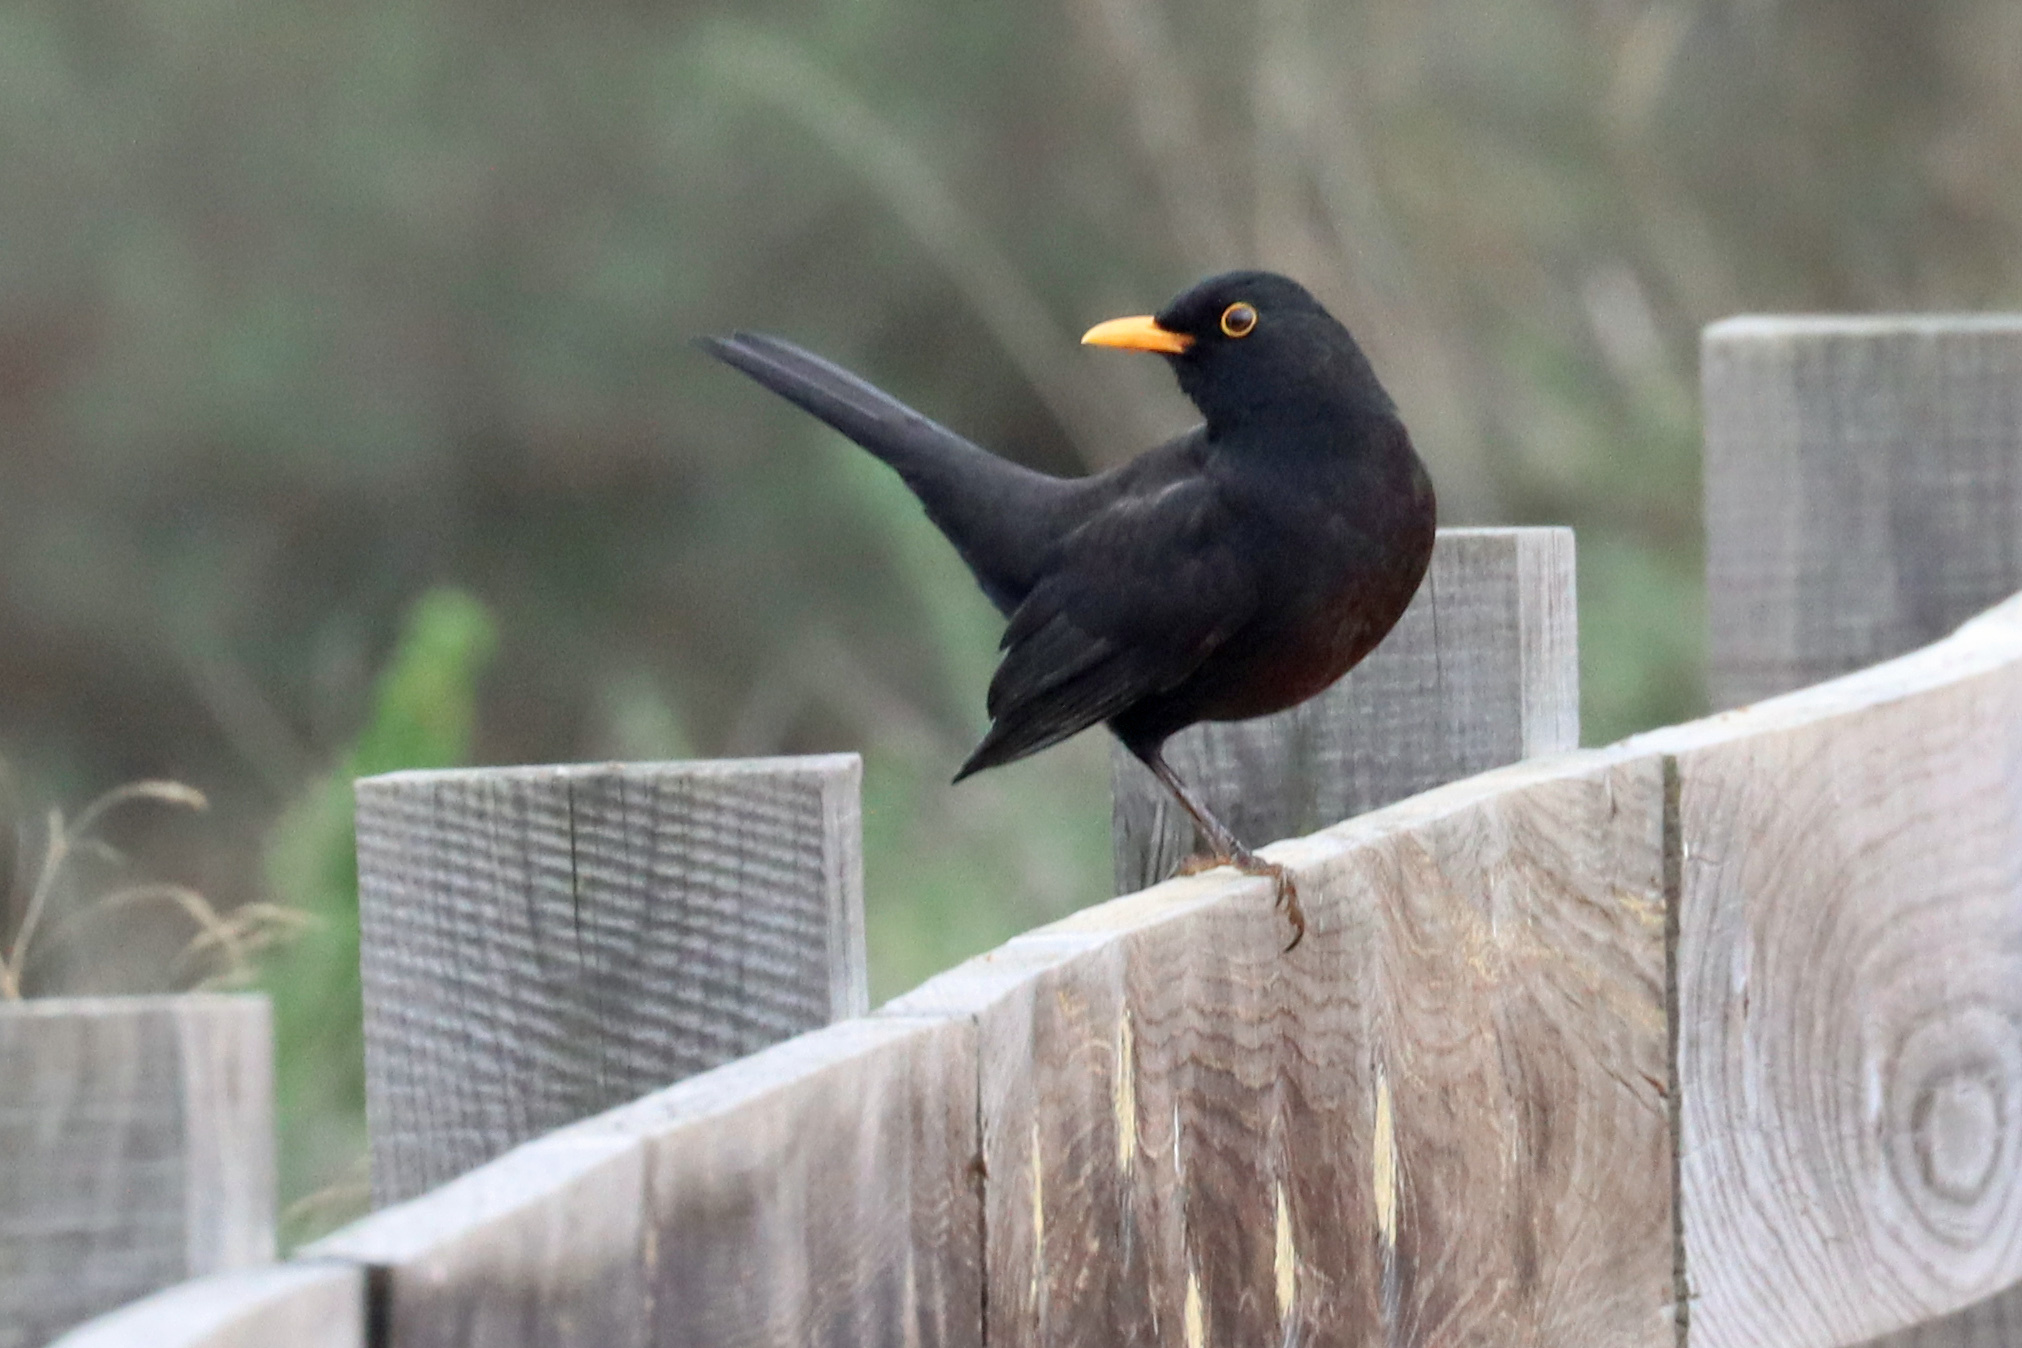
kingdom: Animalia
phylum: Chordata
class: Aves
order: Passeriformes
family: Turdidae
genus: Turdus
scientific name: Turdus merula
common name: Common blackbird
